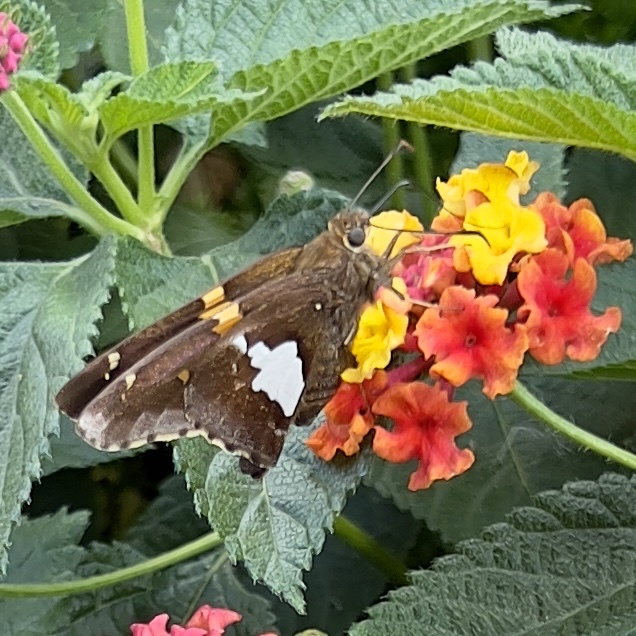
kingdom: Animalia
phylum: Arthropoda
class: Insecta
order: Lepidoptera
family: Hesperiidae
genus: Epargyreus
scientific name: Epargyreus clarus
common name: Silver-spotted skipper
